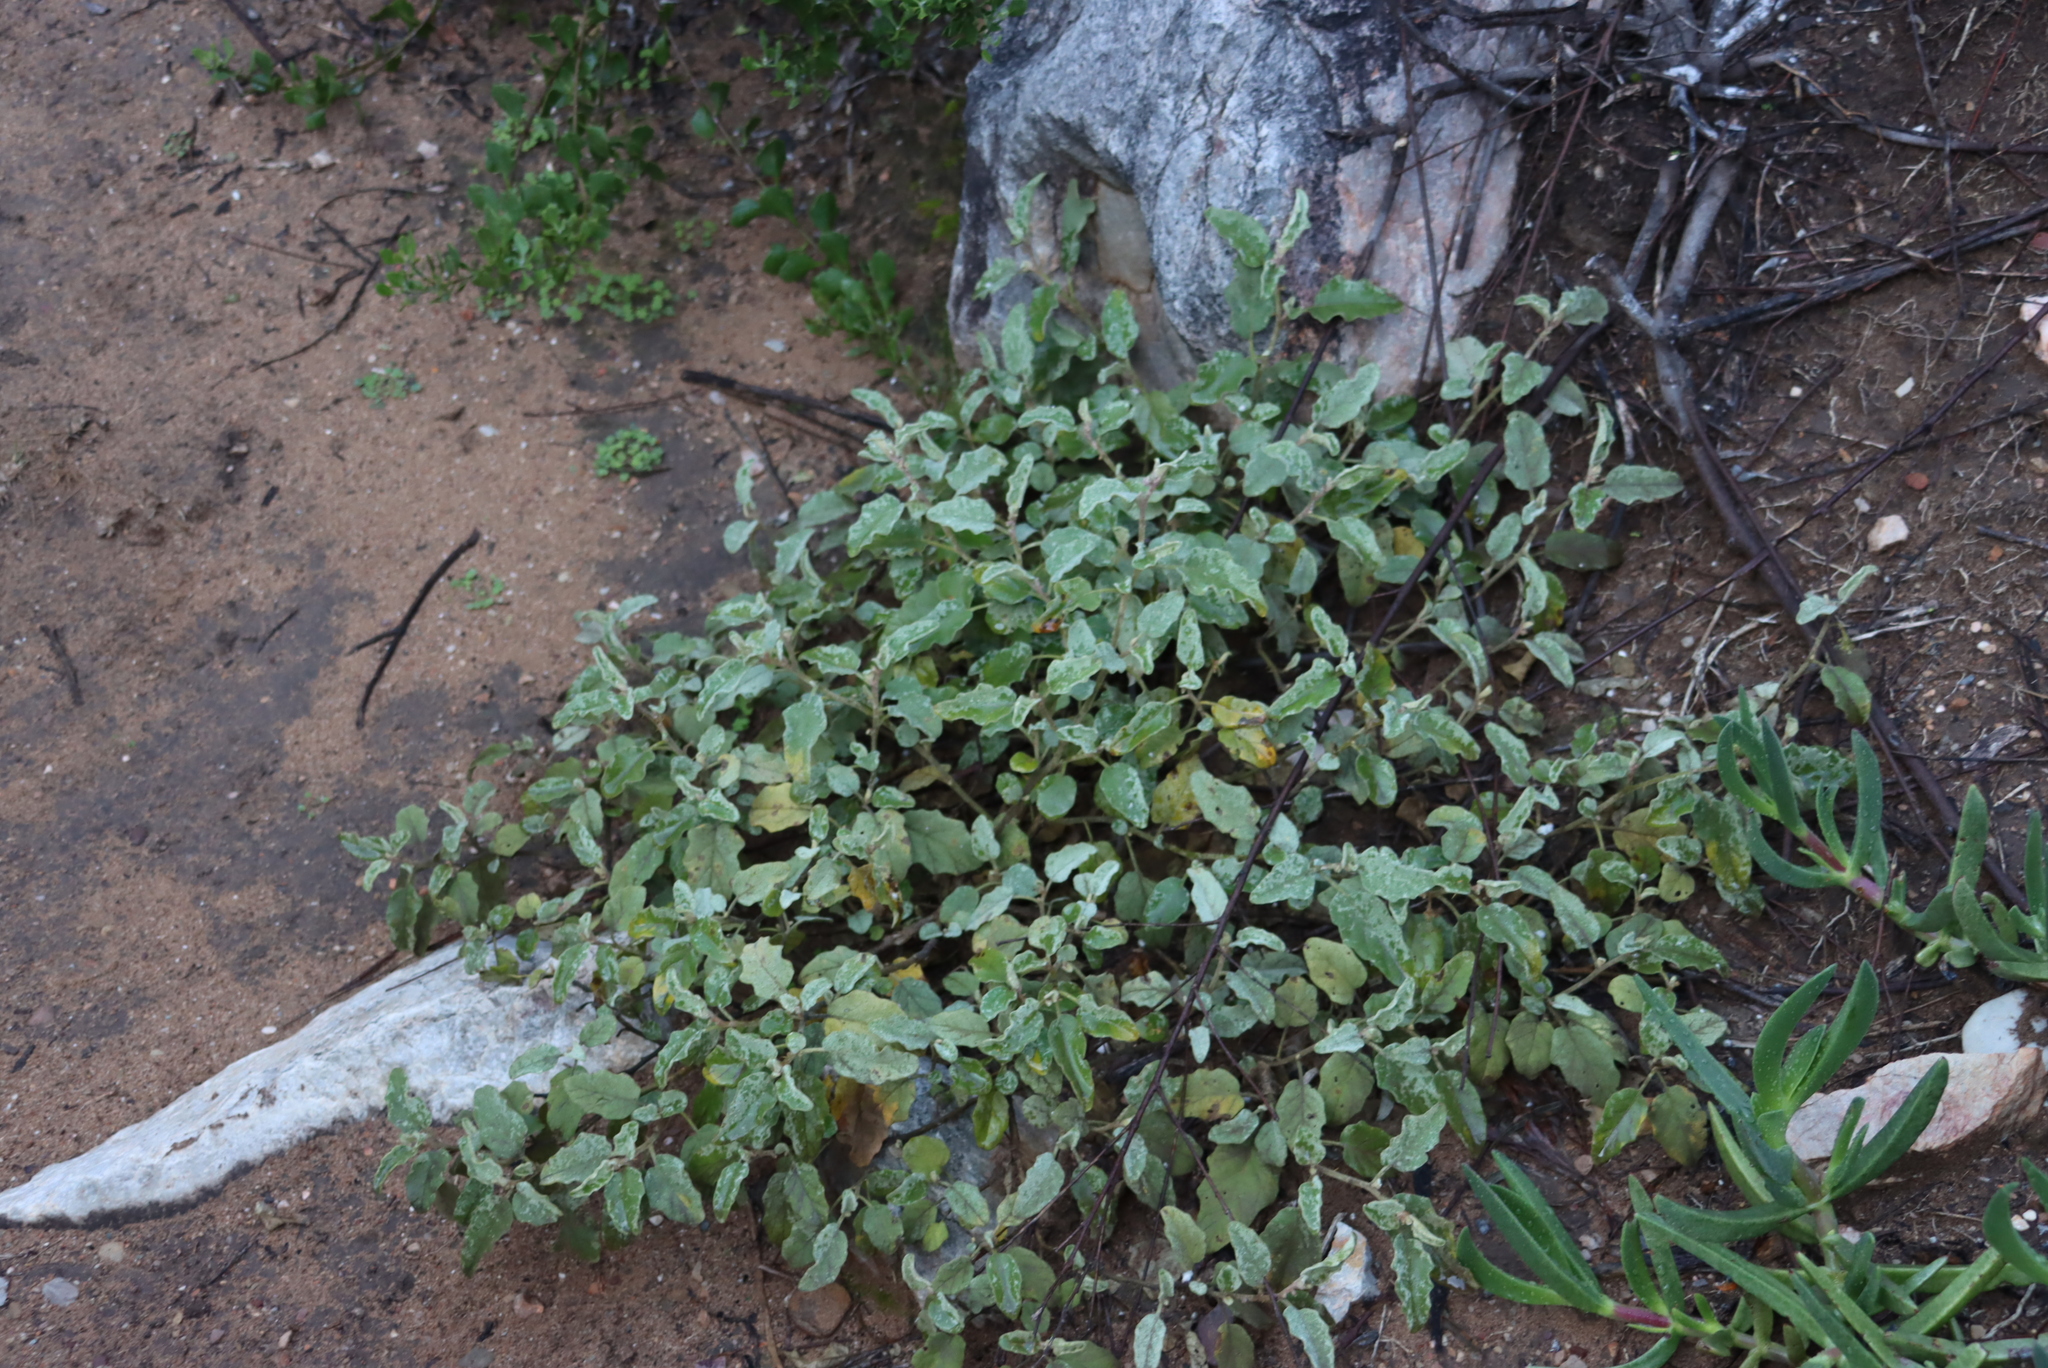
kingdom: Plantae
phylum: Tracheophyta
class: Magnoliopsida
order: Solanales
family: Solanaceae
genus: Solanum
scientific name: Solanum tomentosum
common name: Wild aubergine
